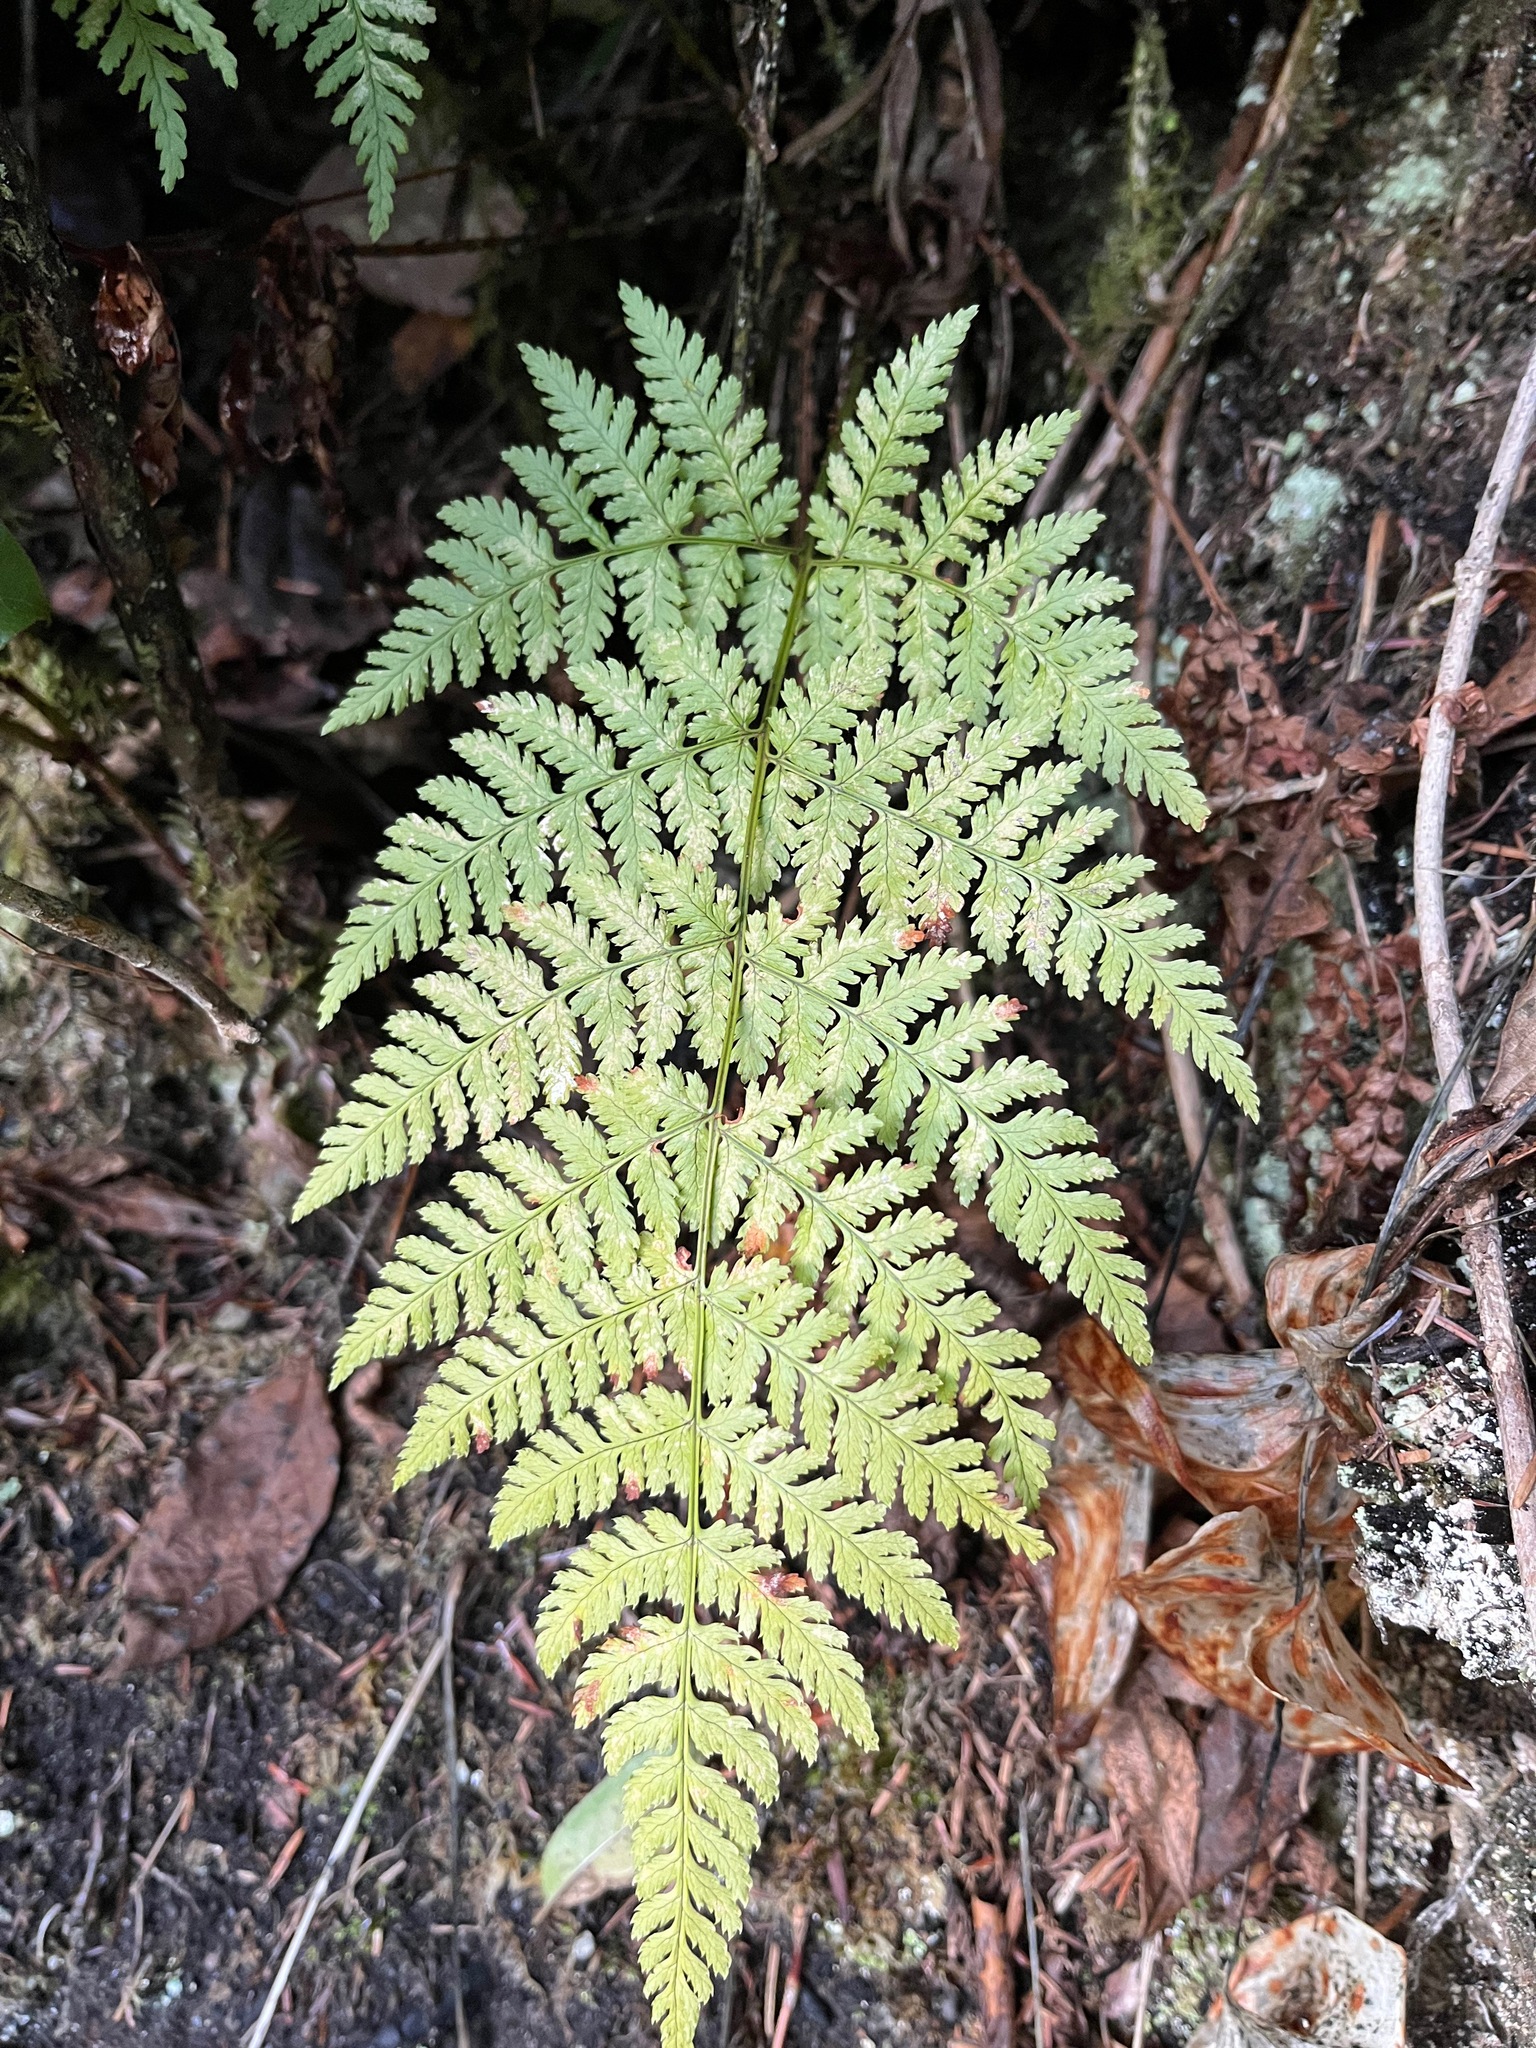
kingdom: Plantae
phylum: Tracheophyta
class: Polypodiopsida
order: Polypodiales
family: Dryopteridaceae
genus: Dryopteris
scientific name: Dryopteris expansa
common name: Northern buckler fern
